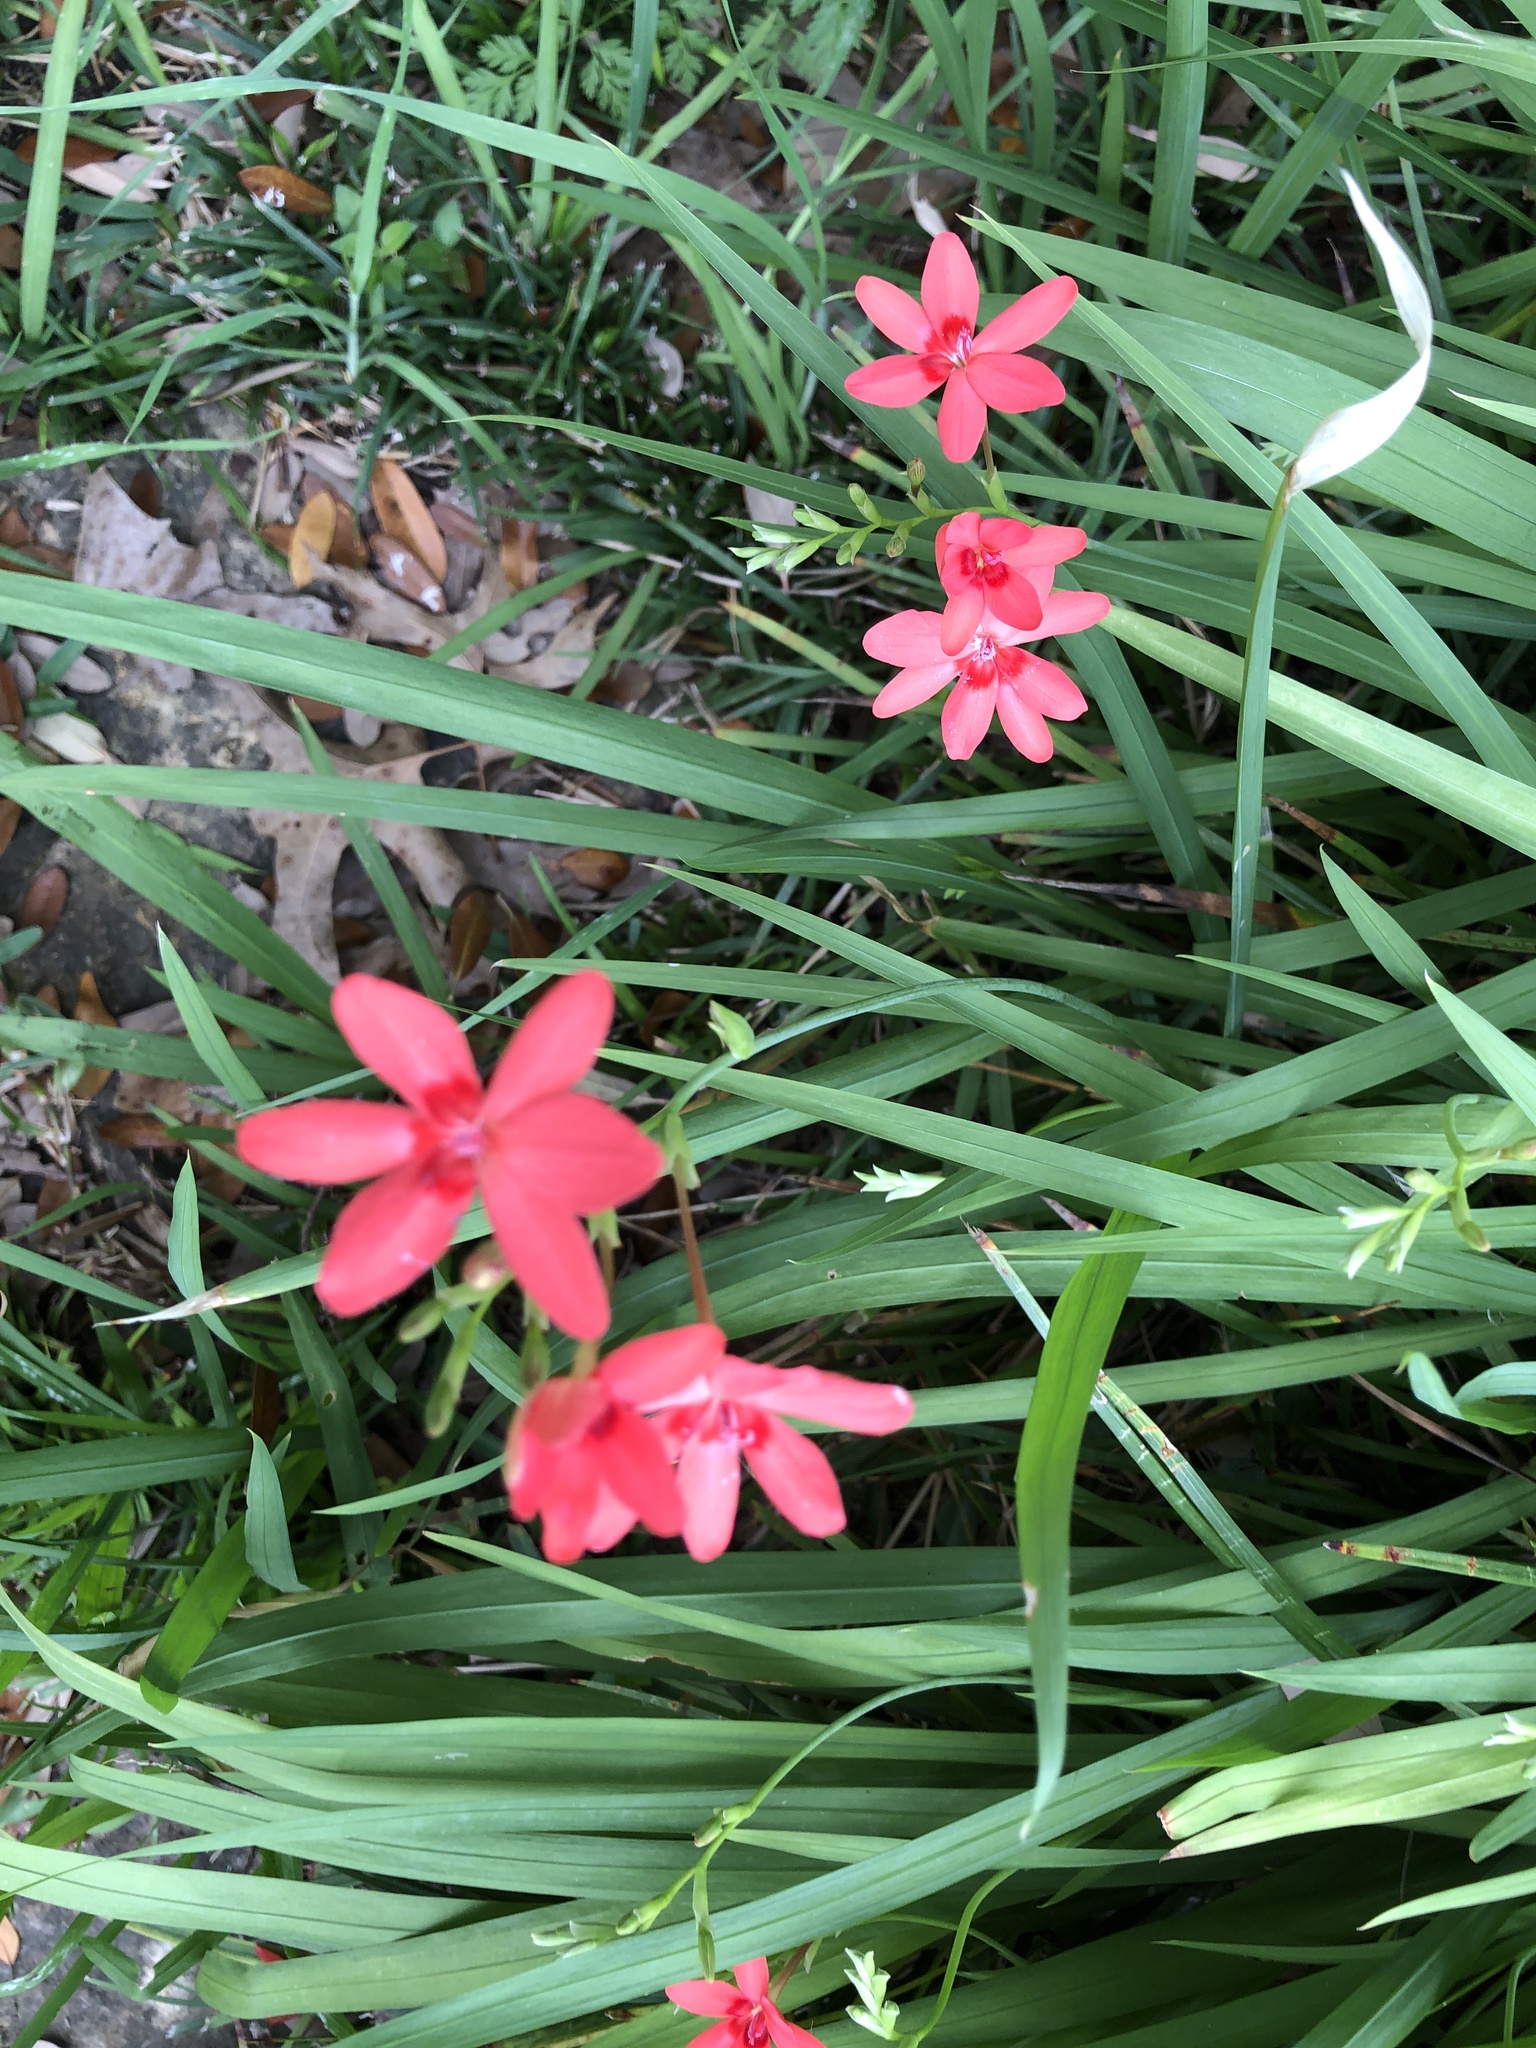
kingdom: Plantae
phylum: Tracheophyta
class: Liliopsida
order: Asparagales
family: Iridaceae
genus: Freesia
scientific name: Freesia laxa
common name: False freesia
